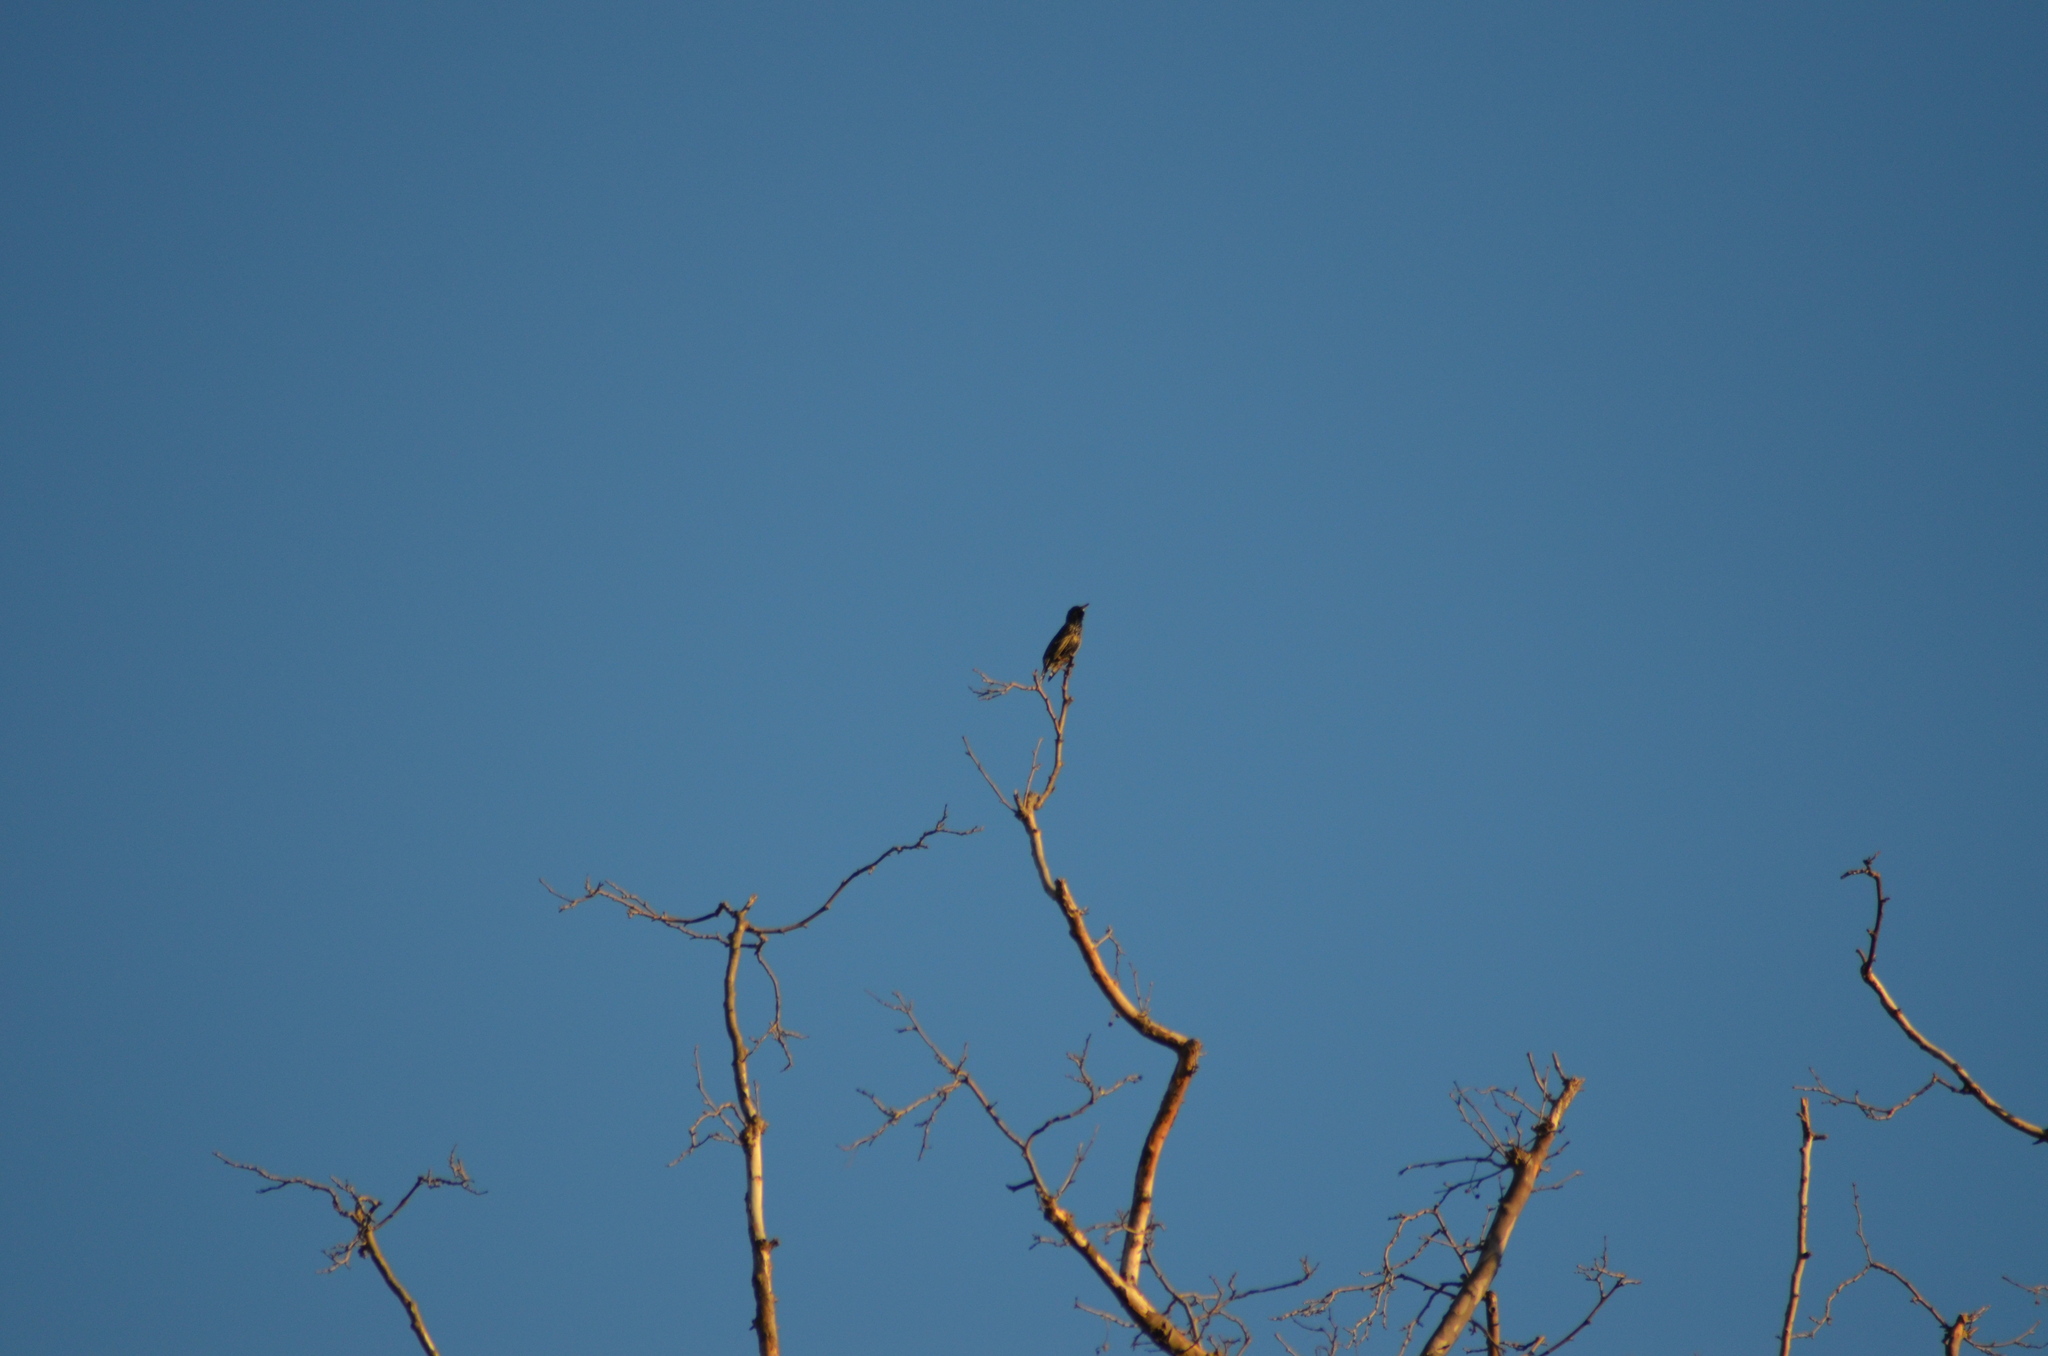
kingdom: Animalia
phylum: Chordata
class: Aves
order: Passeriformes
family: Sturnidae
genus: Sturnus
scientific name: Sturnus vulgaris
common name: Common starling
